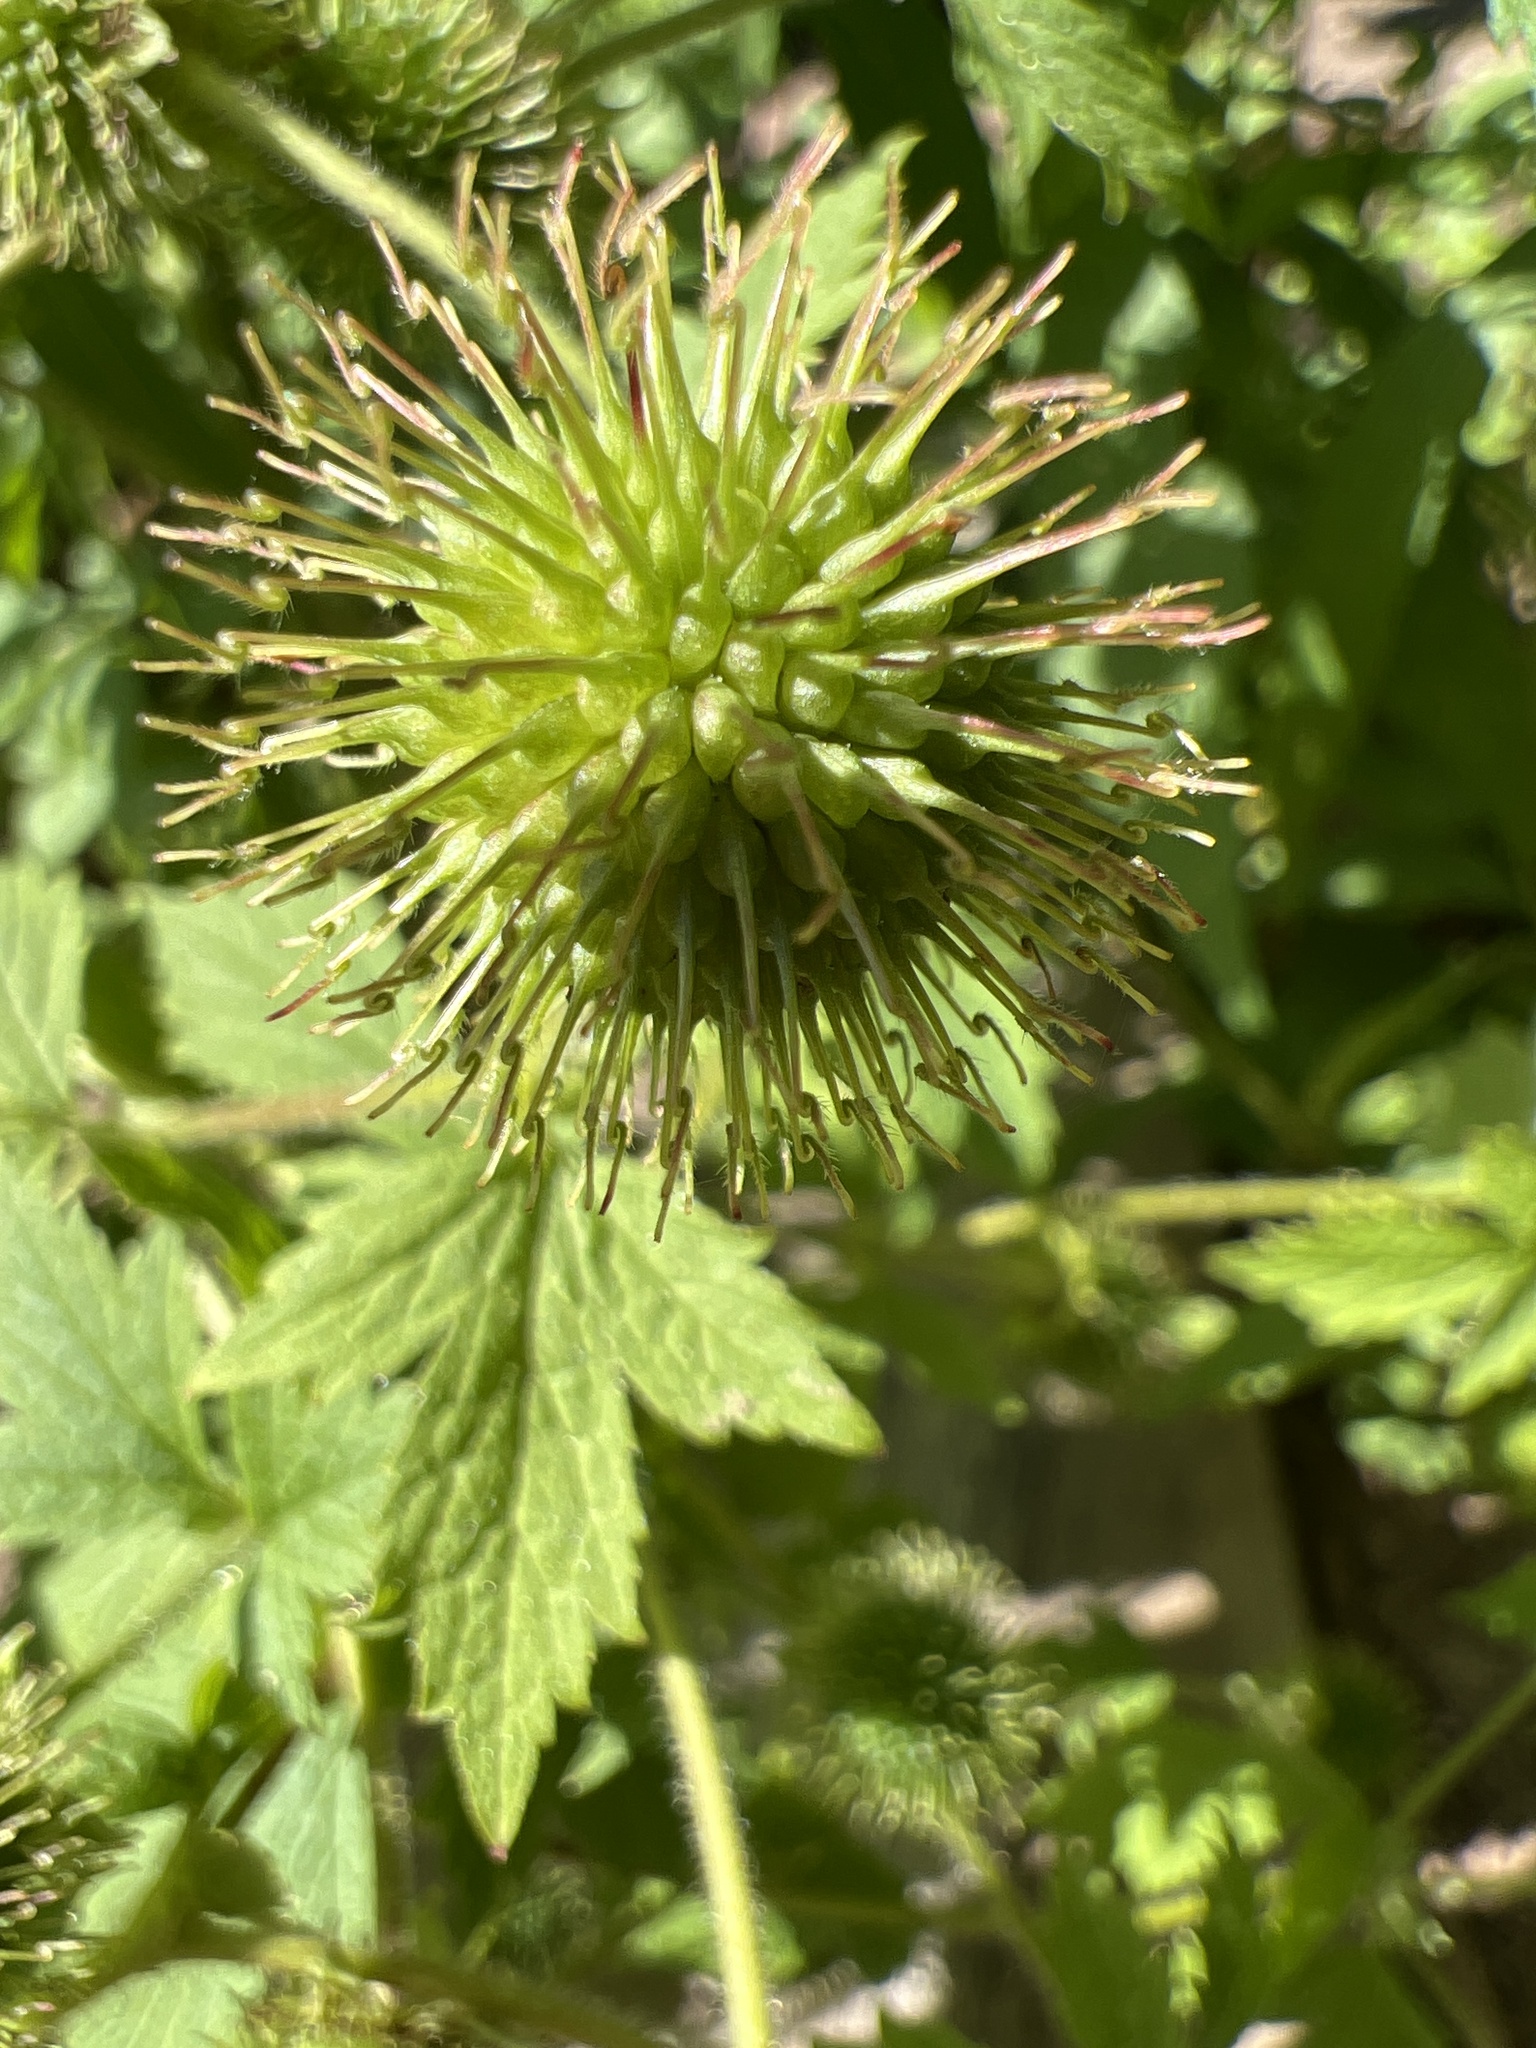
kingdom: Plantae
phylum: Tracheophyta
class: Magnoliopsida
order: Rosales
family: Rosaceae
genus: Geum
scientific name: Geum laciniatum
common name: Rough avens
